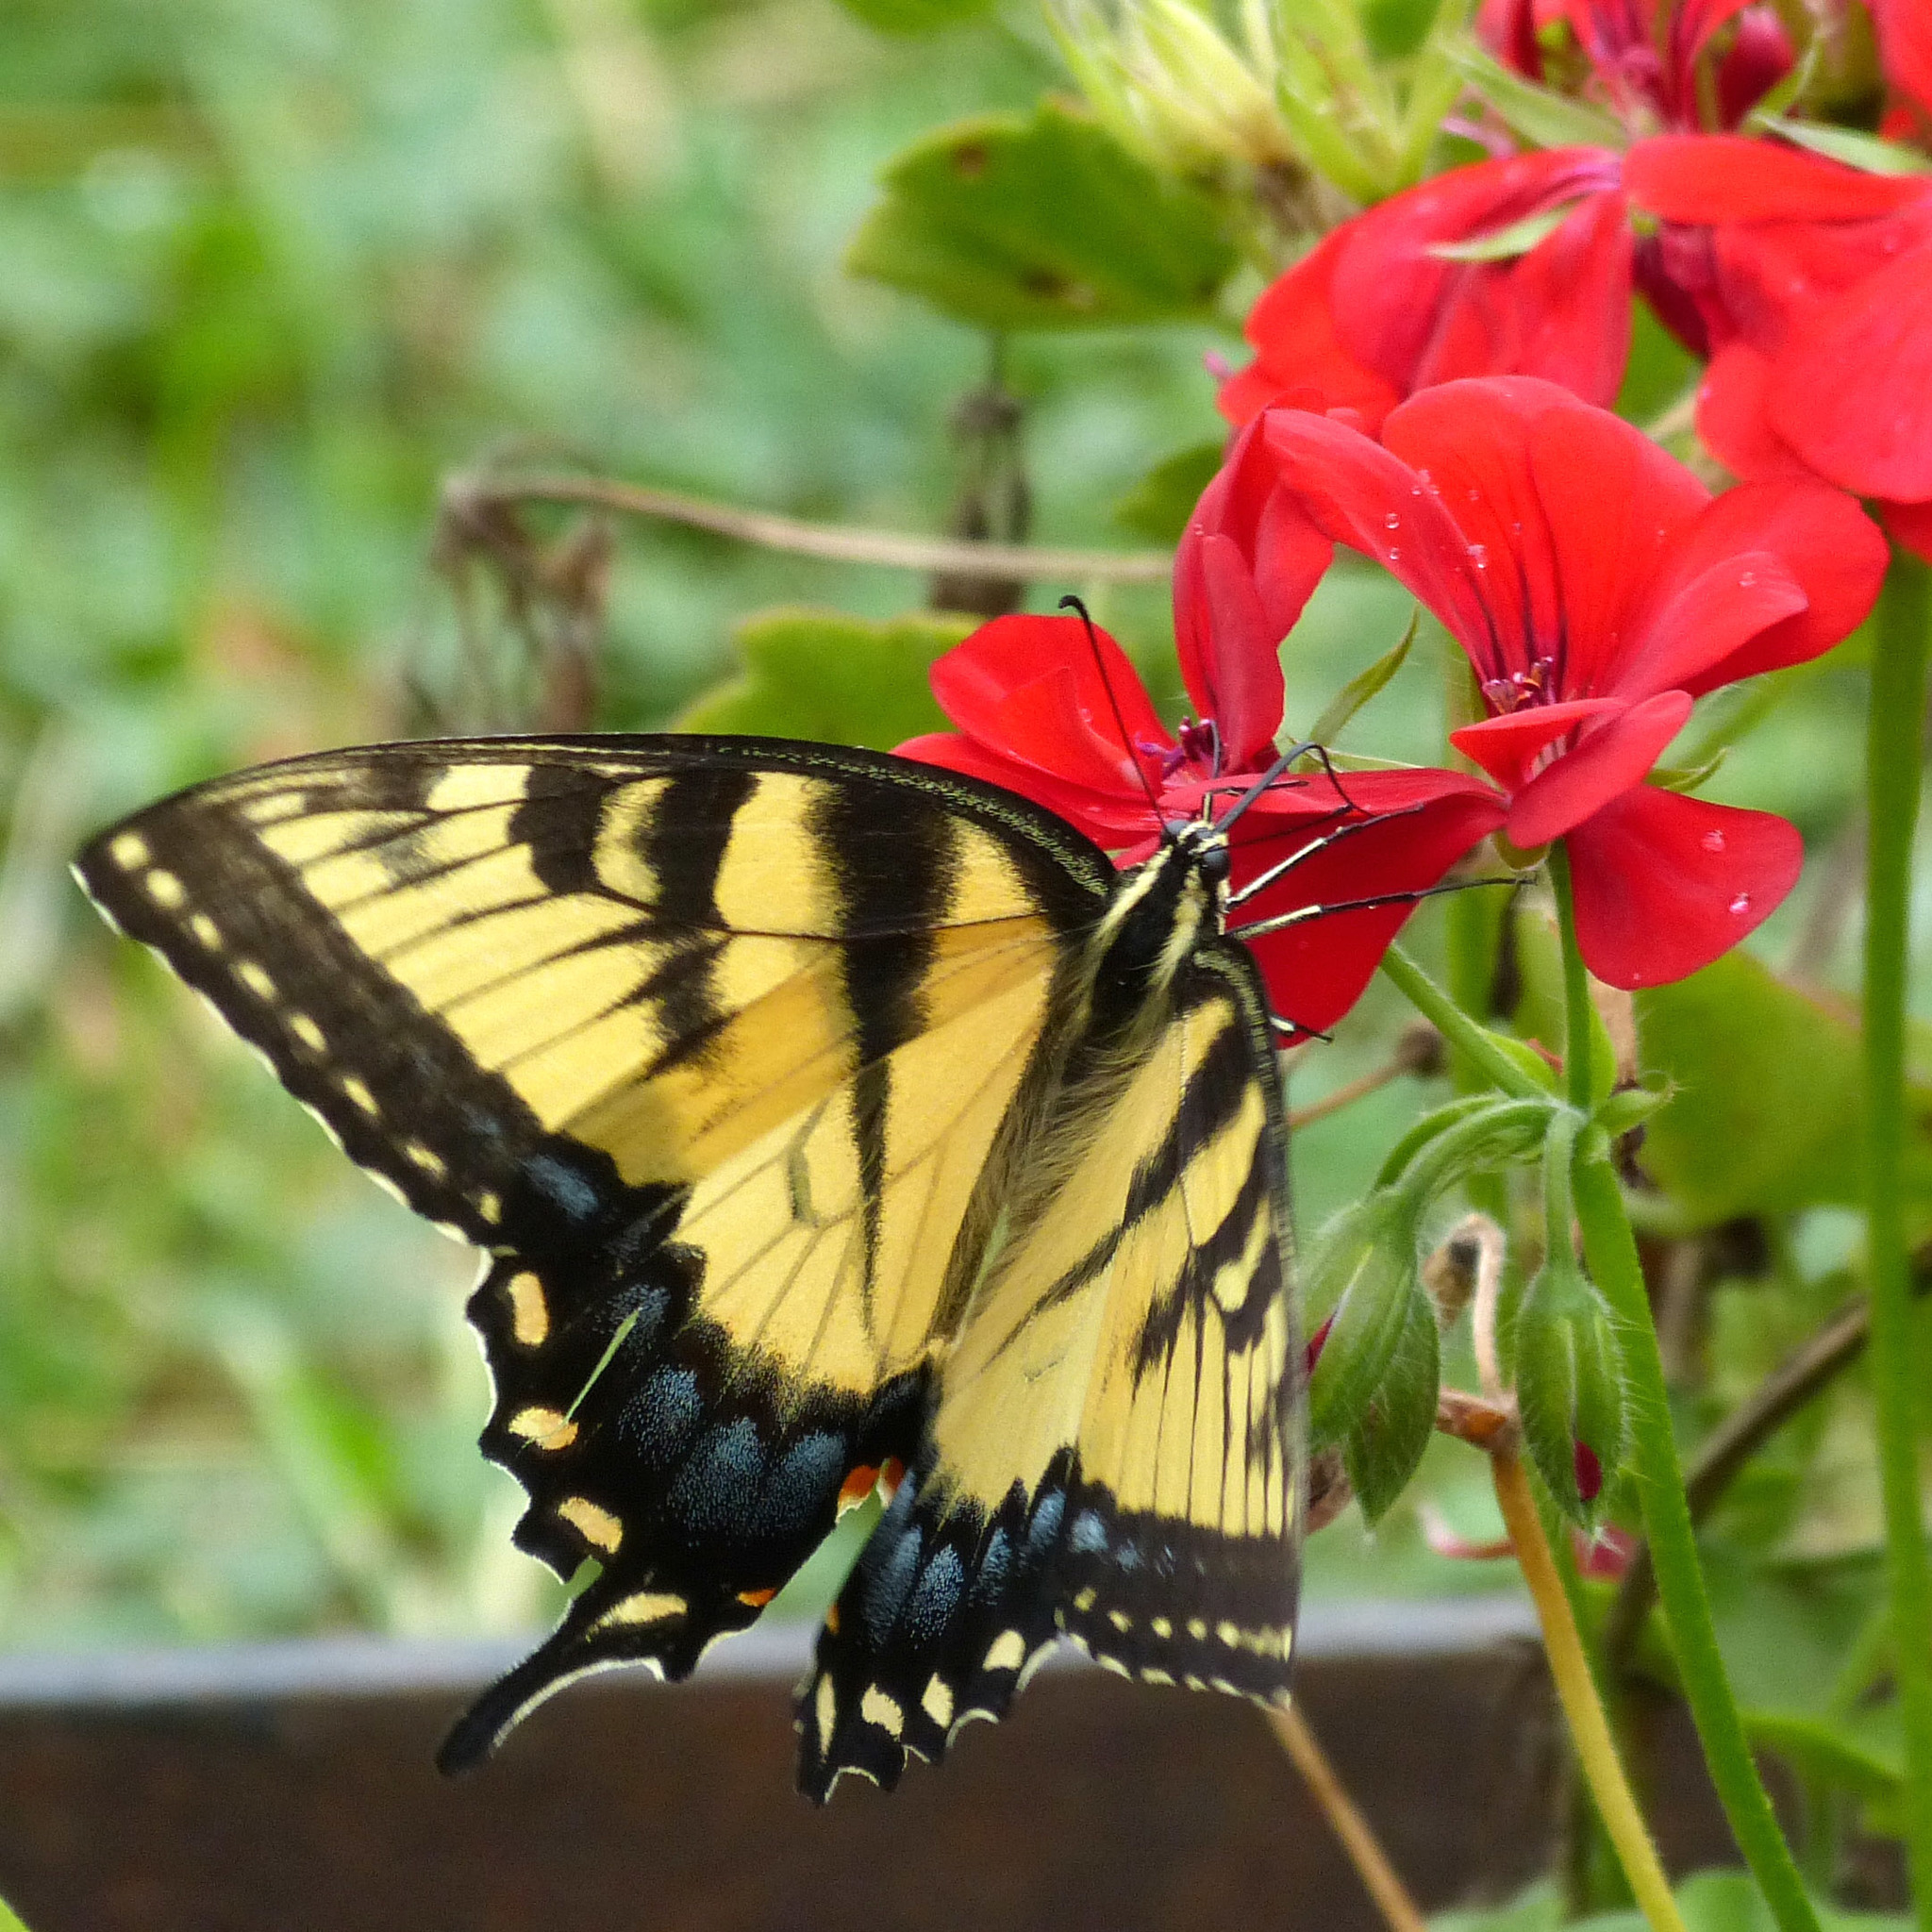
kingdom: Animalia
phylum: Arthropoda
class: Insecta
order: Lepidoptera
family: Papilionidae
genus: Papilio
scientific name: Papilio glaucus
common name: Tiger swallowtail
